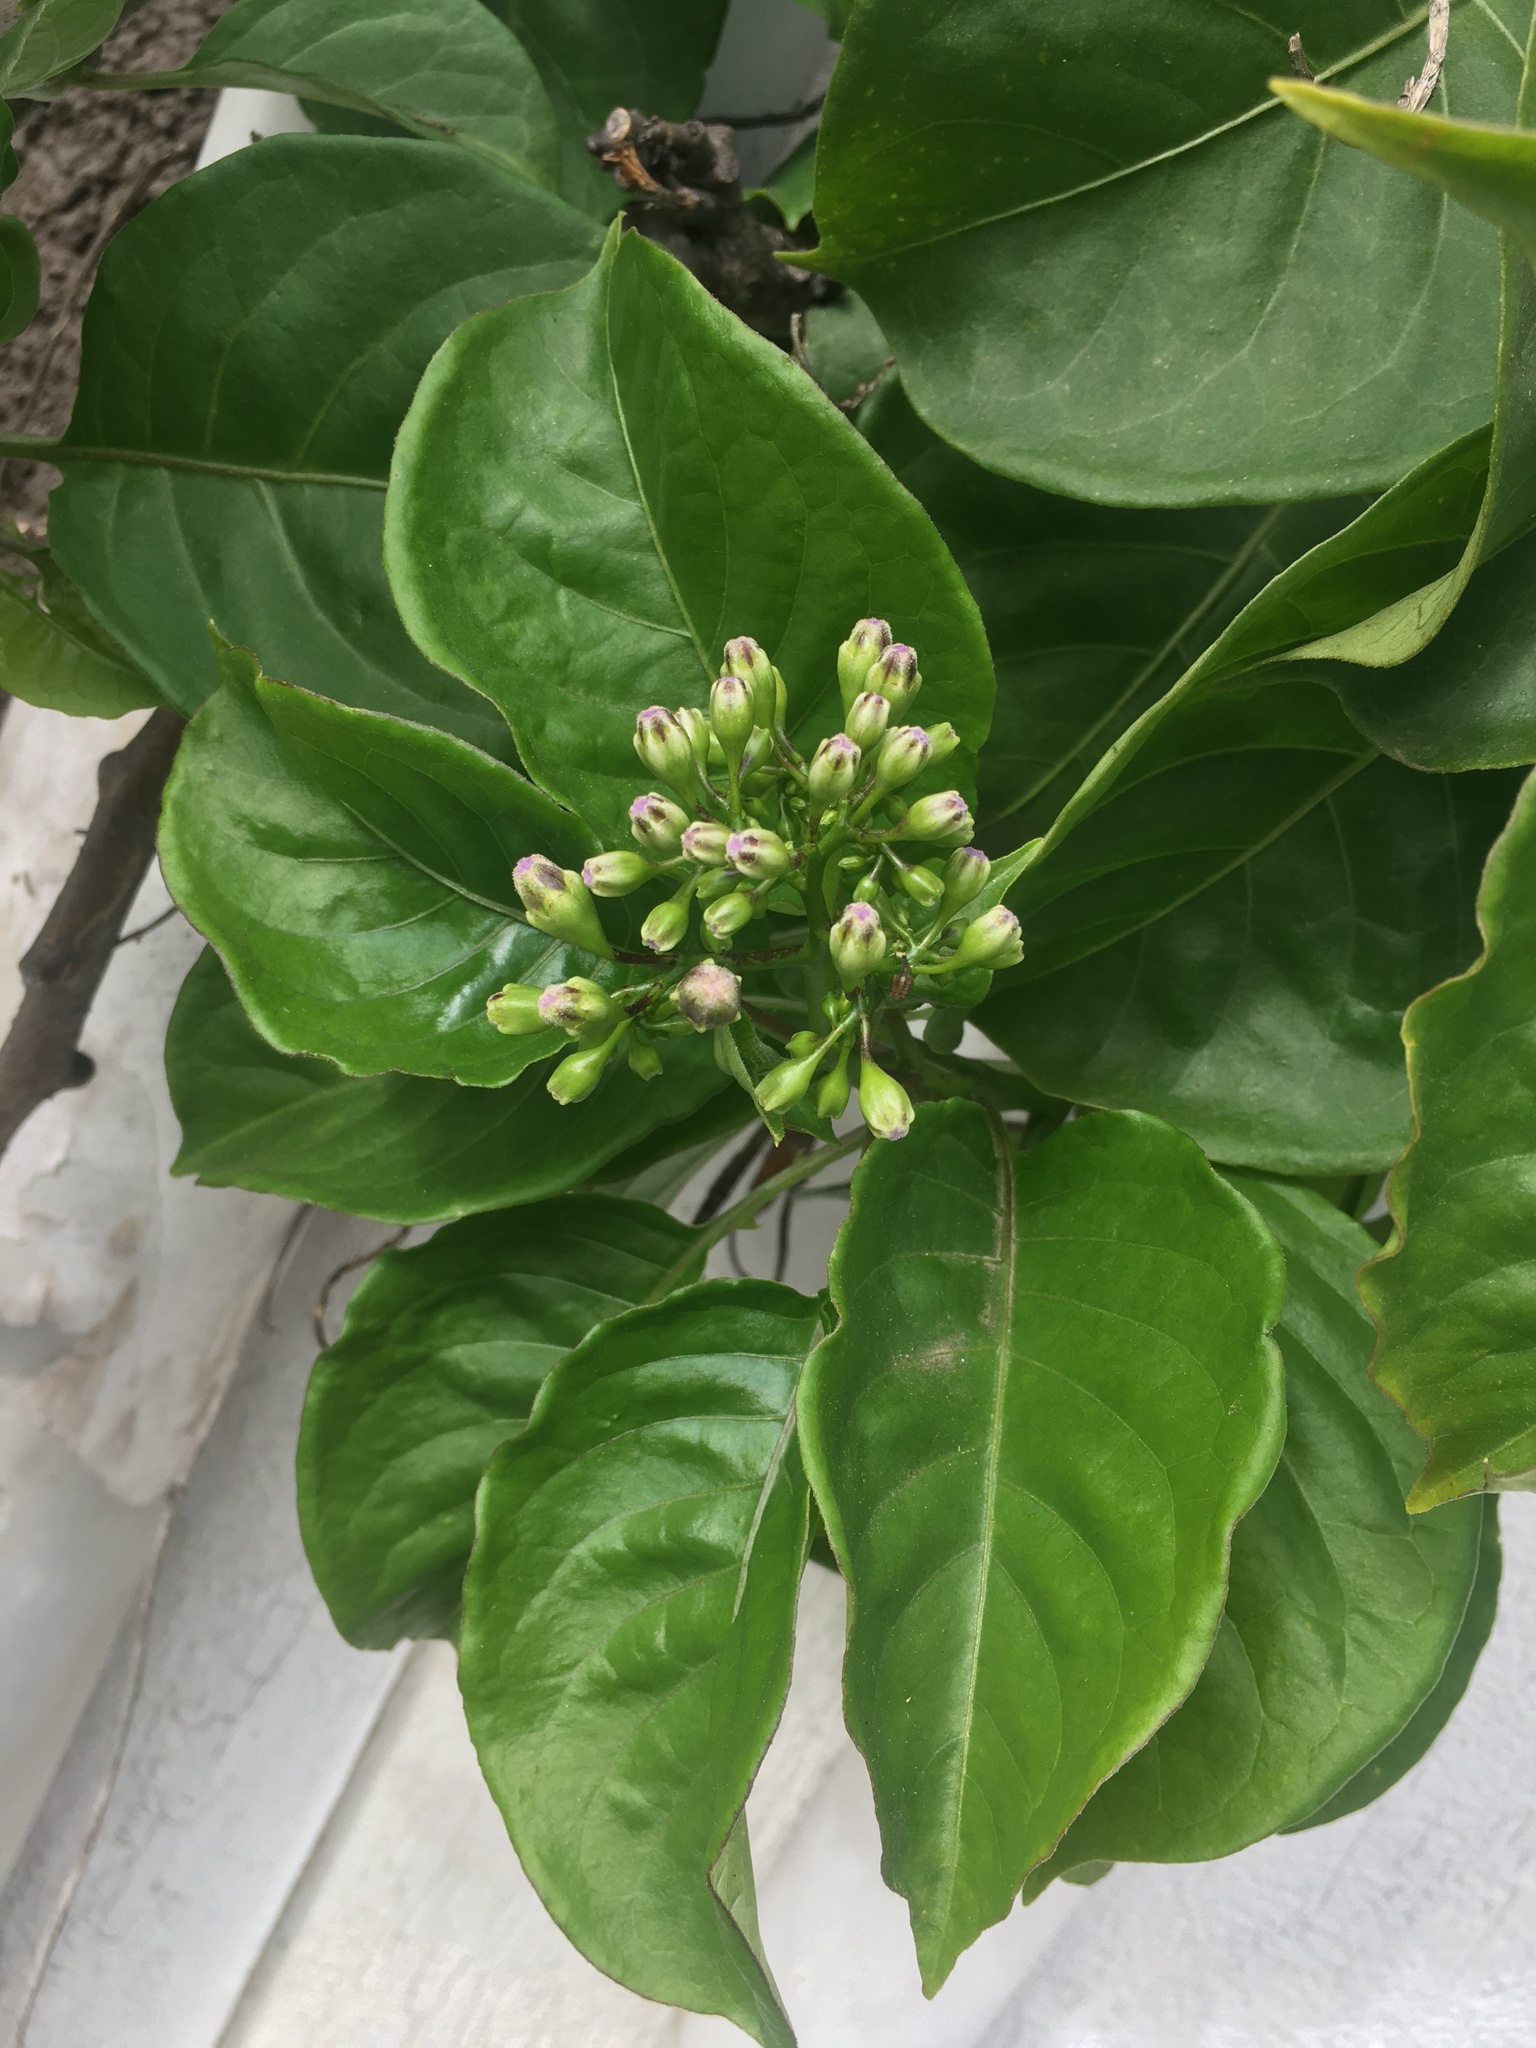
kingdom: Plantae
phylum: Tracheophyta
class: Magnoliopsida
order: Solanales
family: Solanaceae
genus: Solanum
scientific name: Solanum wendlandii
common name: Costa rican nightshade
